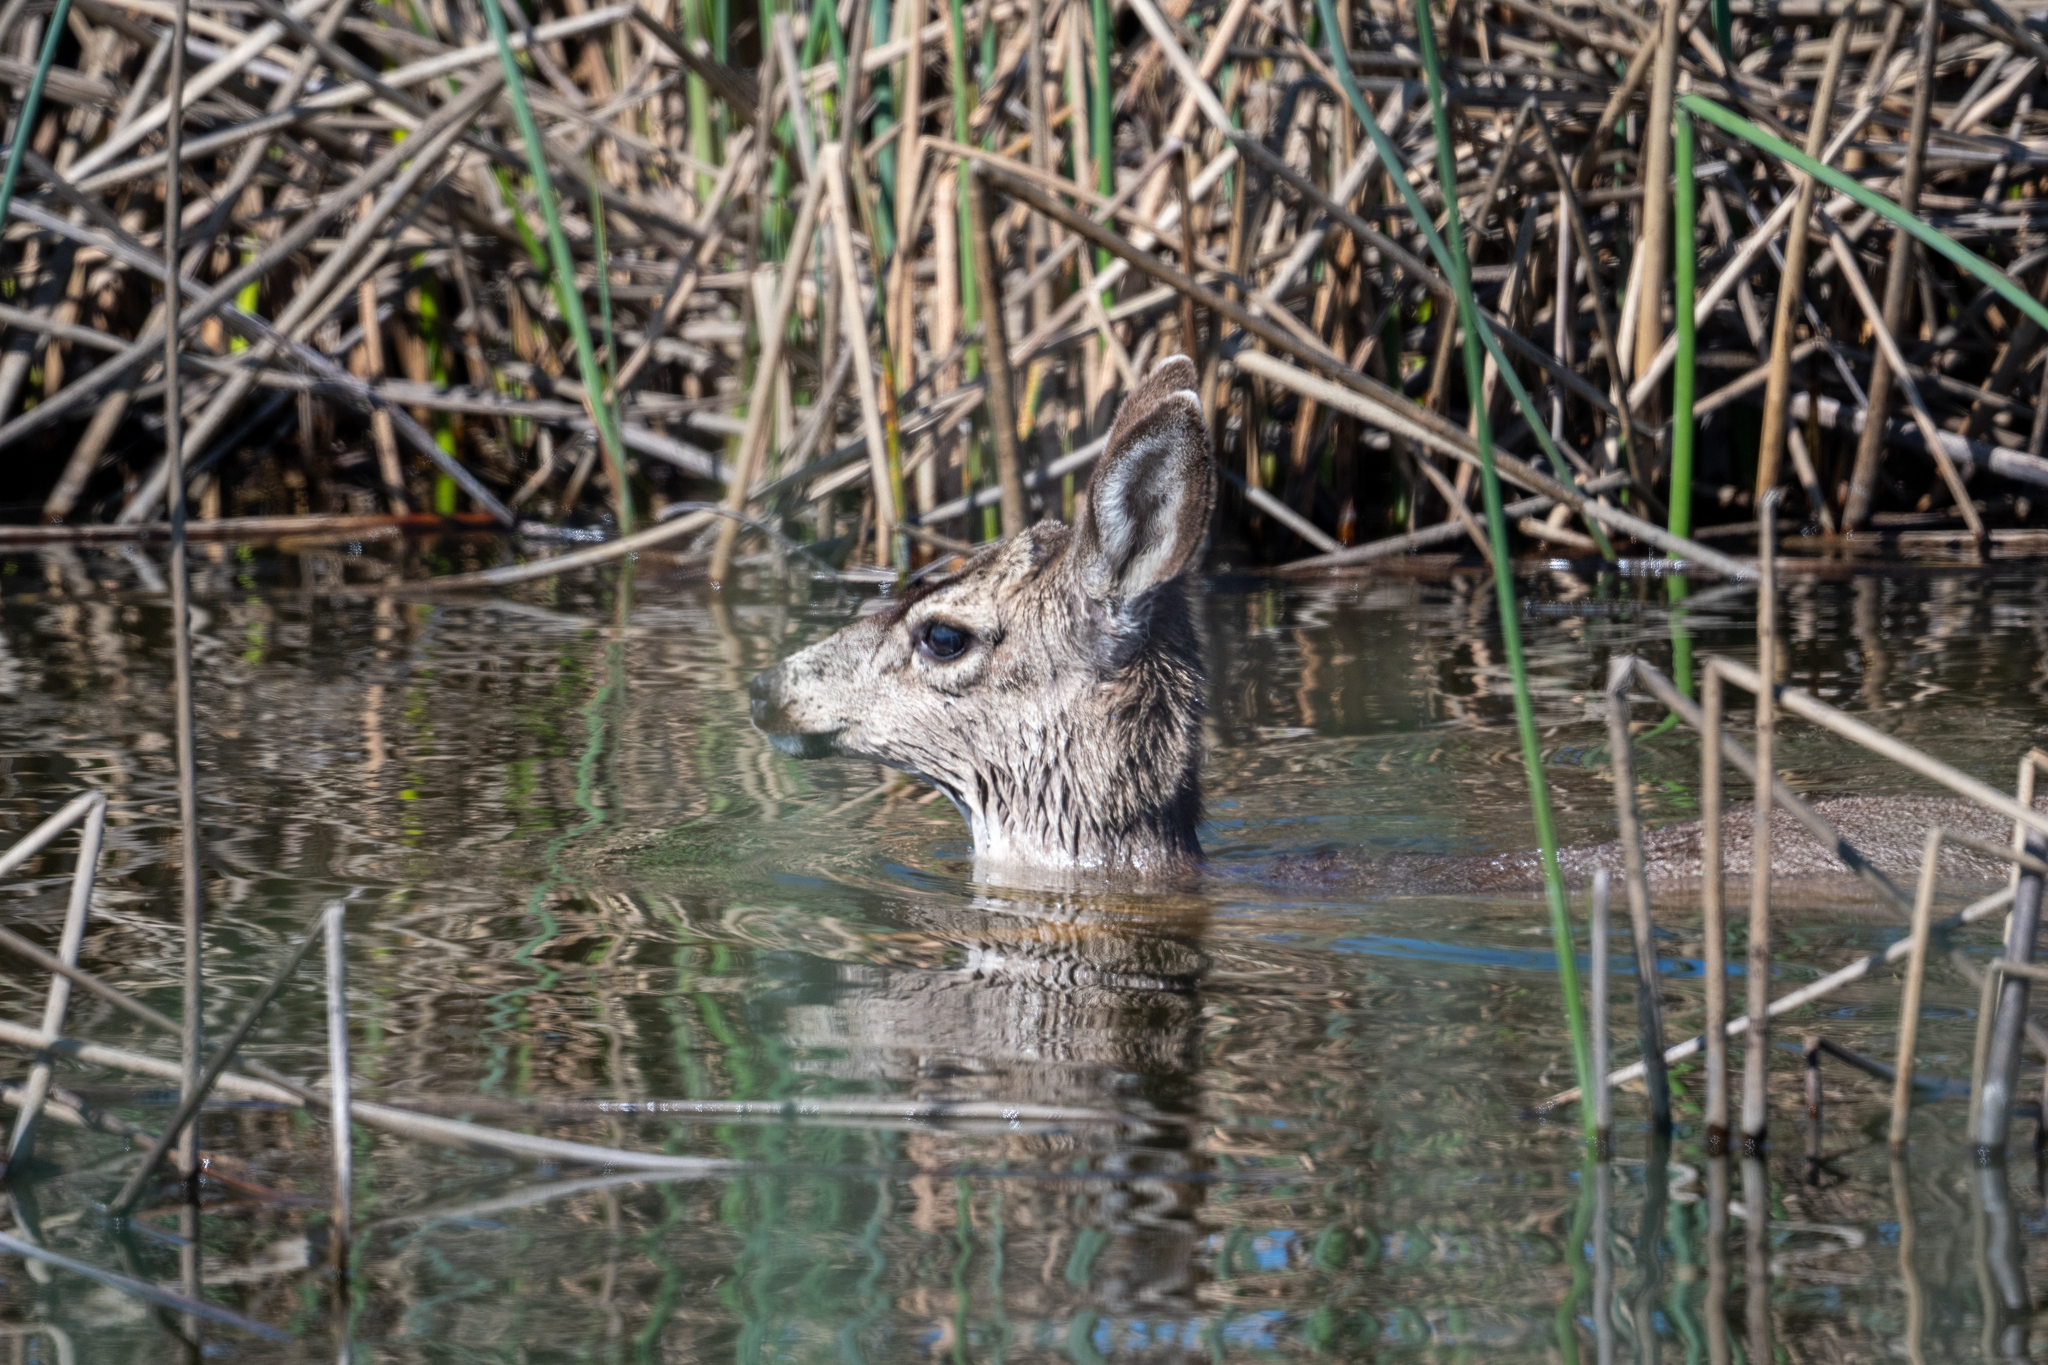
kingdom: Animalia
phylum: Chordata
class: Mammalia
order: Artiodactyla
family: Cervidae
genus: Odocoileus
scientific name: Odocoileus hemionus
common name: Mule deer
